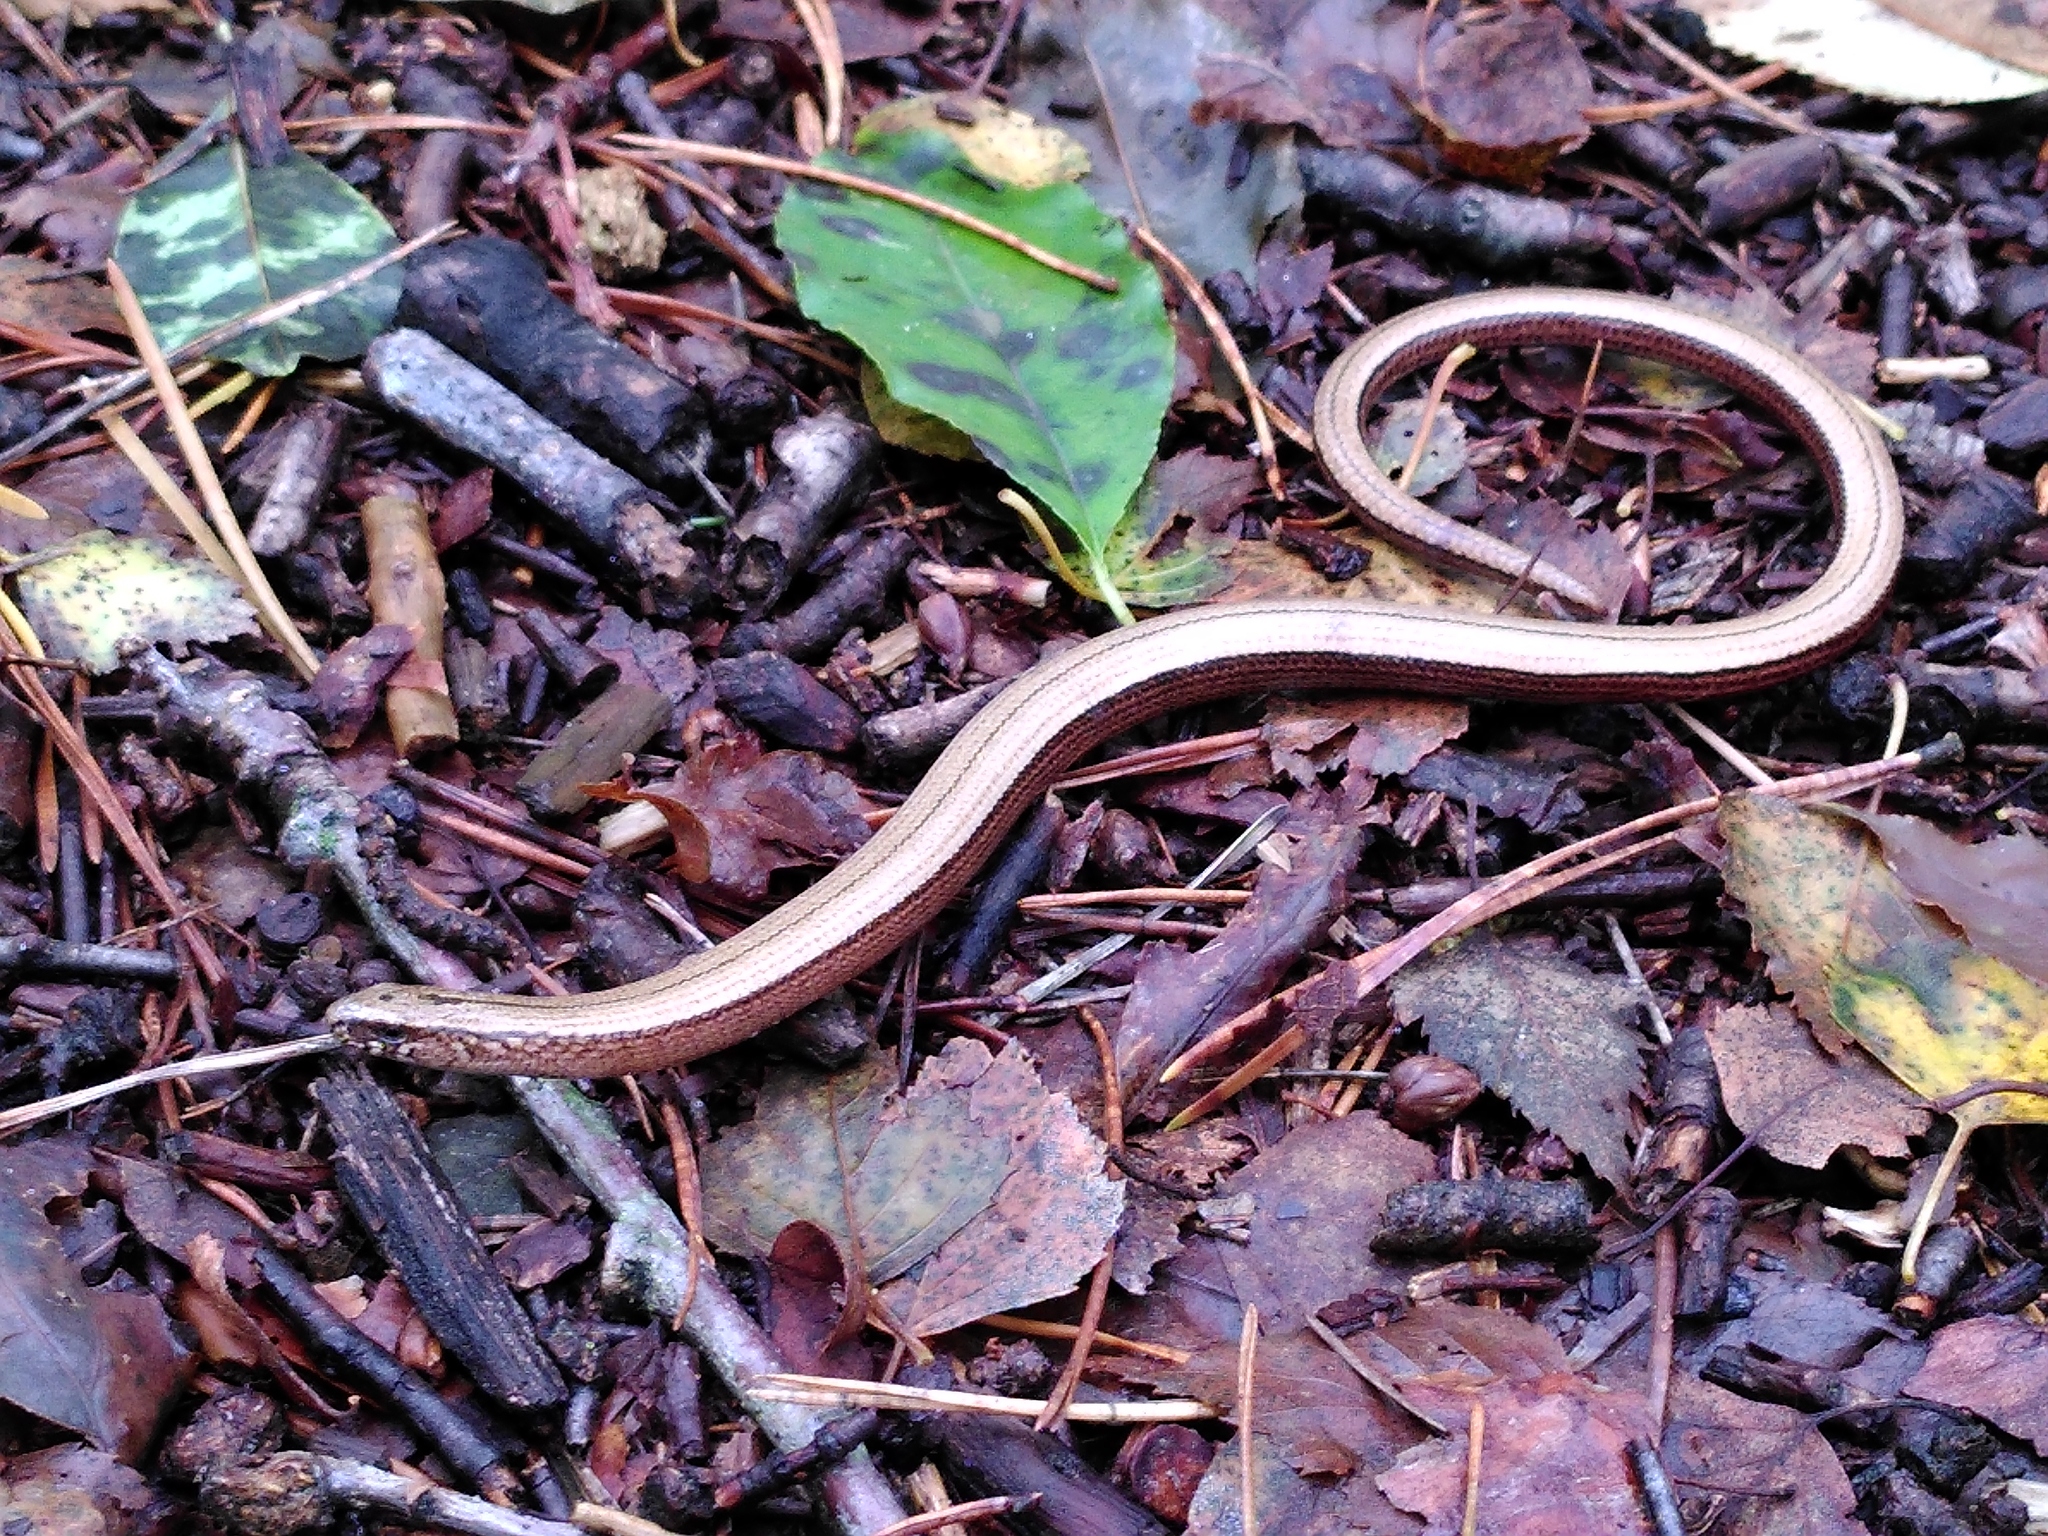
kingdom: Animalia
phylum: Chordata
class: Squamata
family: Anguidae
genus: Anguis
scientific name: Anguis fragilis
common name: Slow worm
